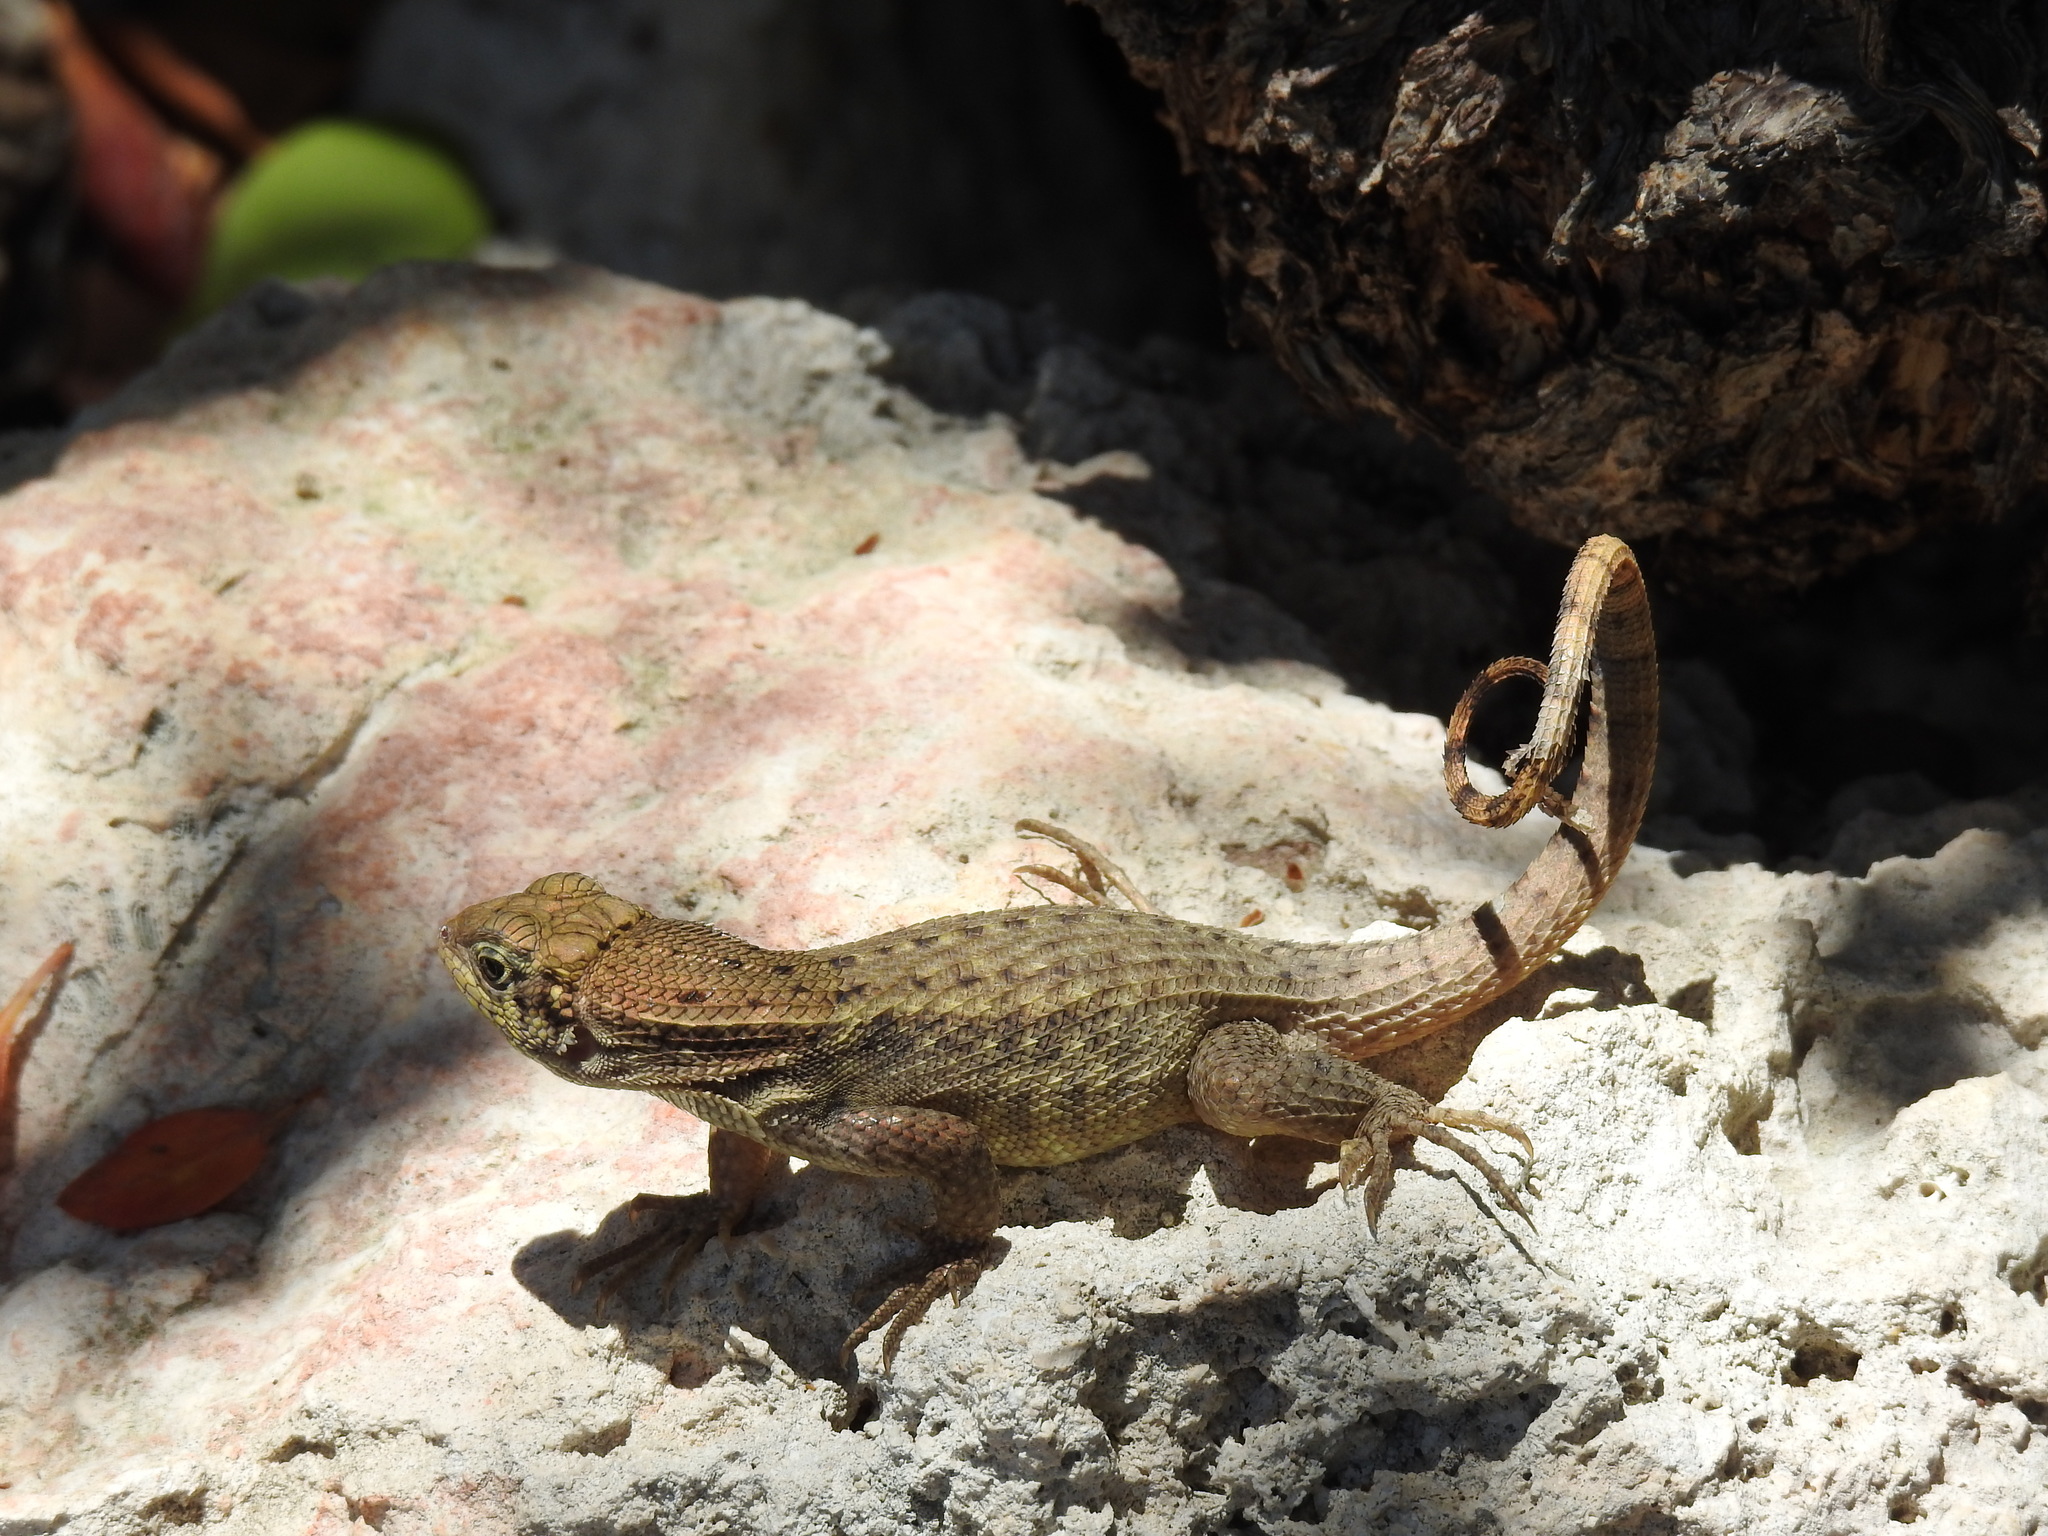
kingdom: Animalia
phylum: Chordata
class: Squamata
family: Leiocephalidae
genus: Leiocephalus
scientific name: Leiocephalus carinatus
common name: Northern curly-tailed lizard
